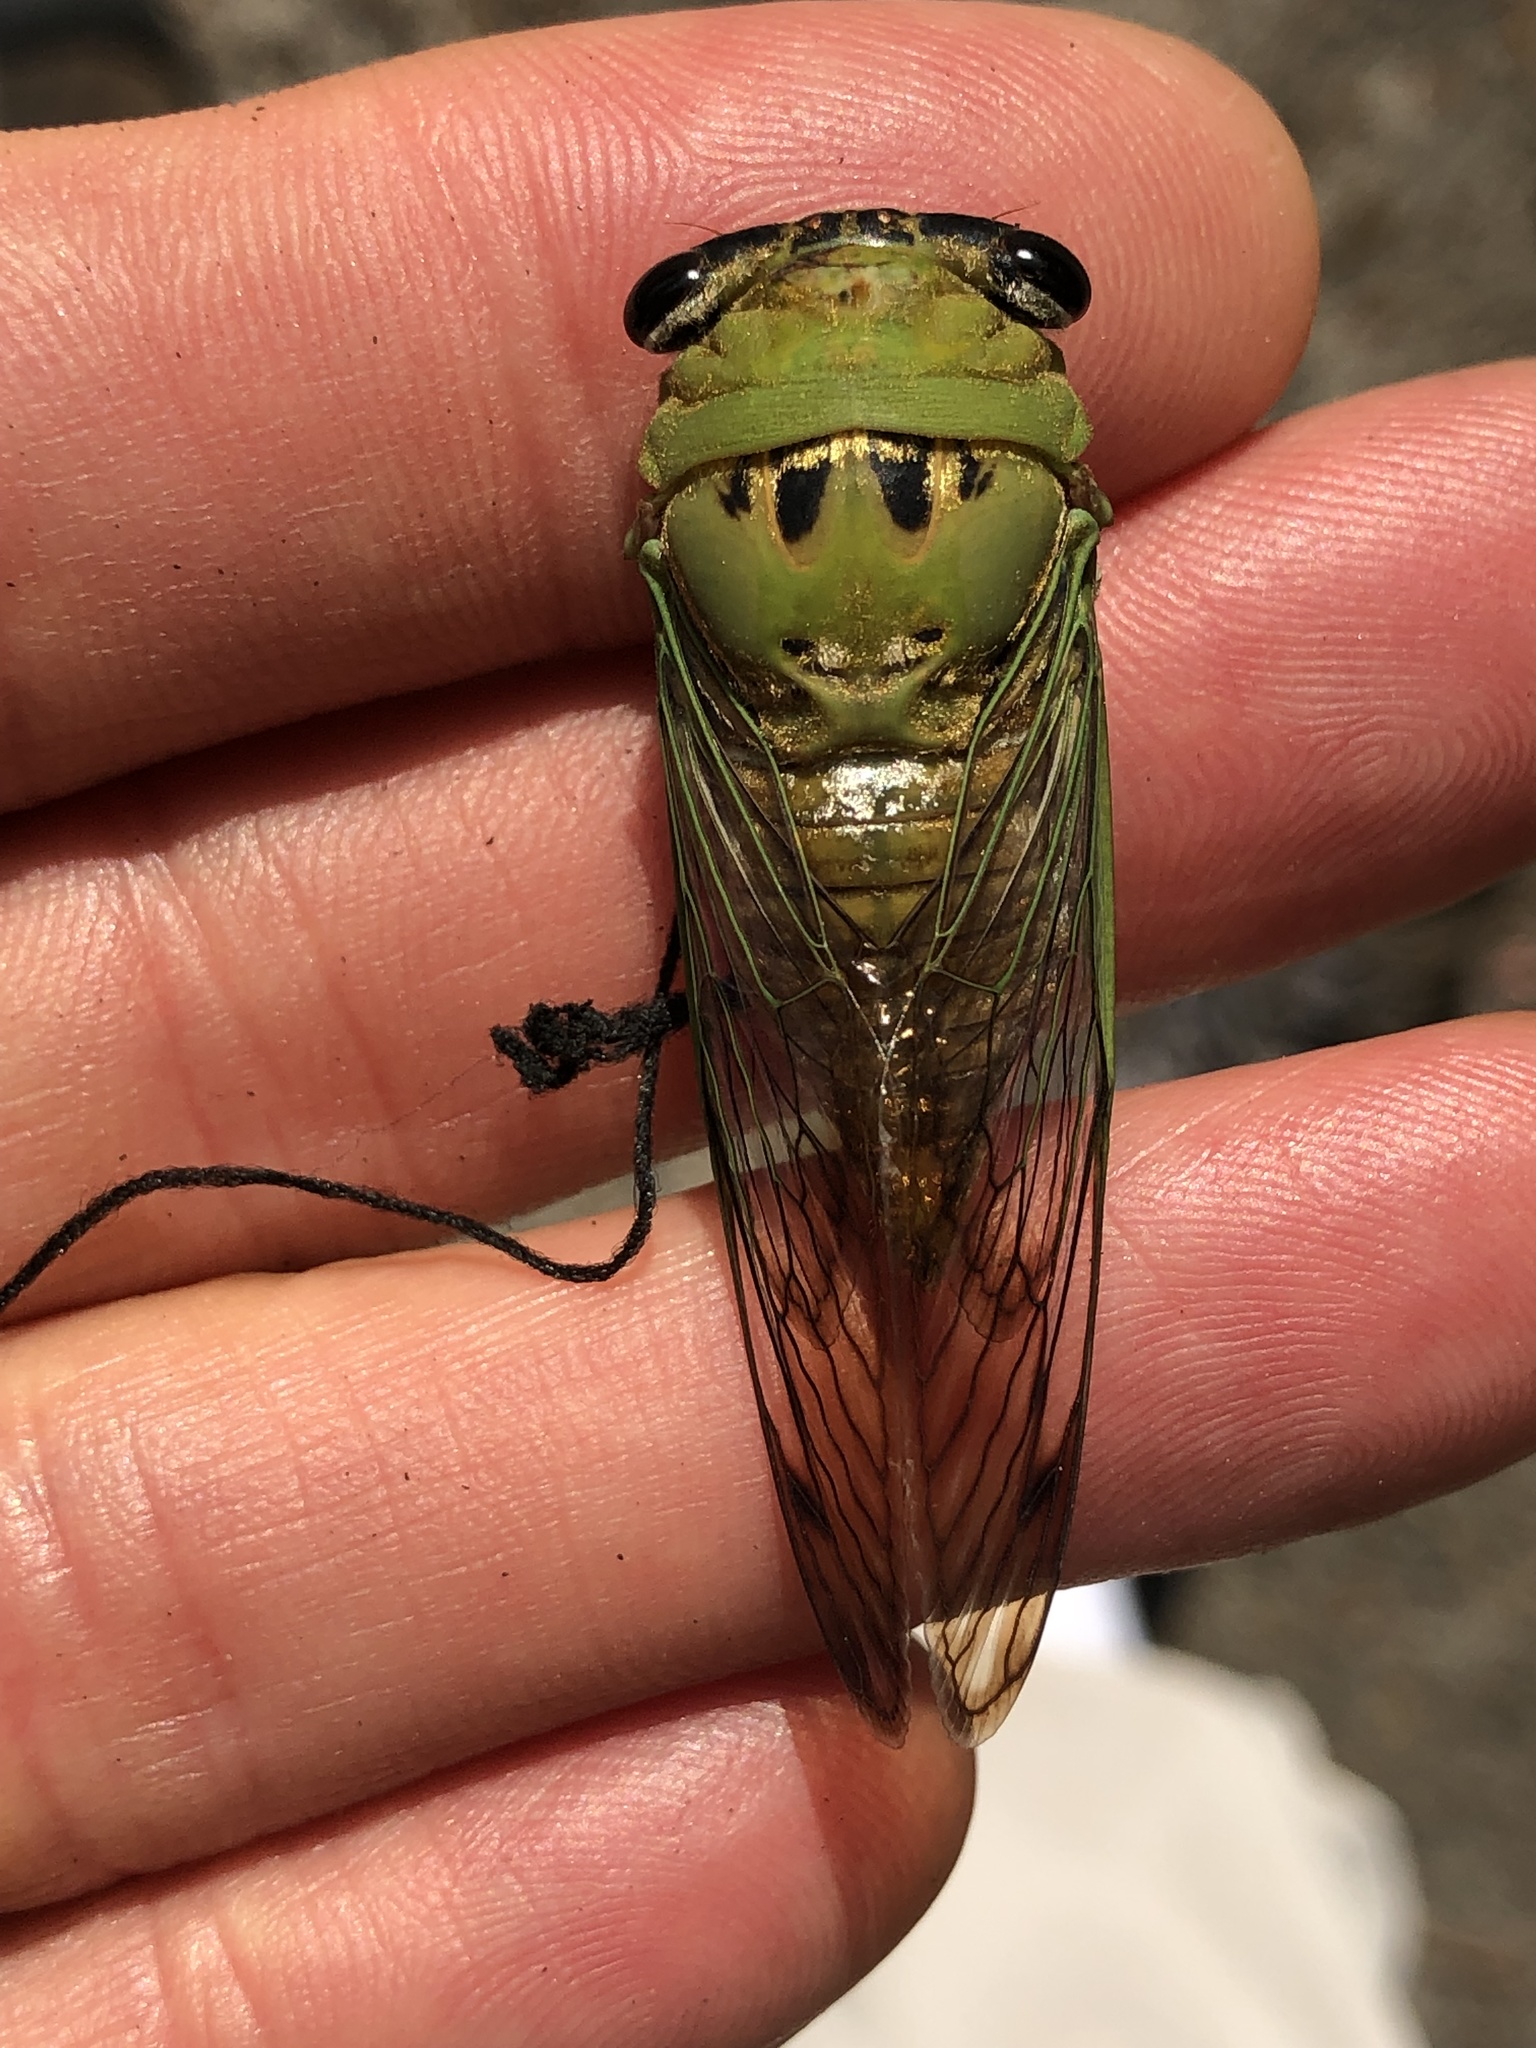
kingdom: Animalia
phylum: Arthropoda
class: Insecta
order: Hemiptera
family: Cicadidae
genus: Neotibicen
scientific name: Neotibicen superbus
